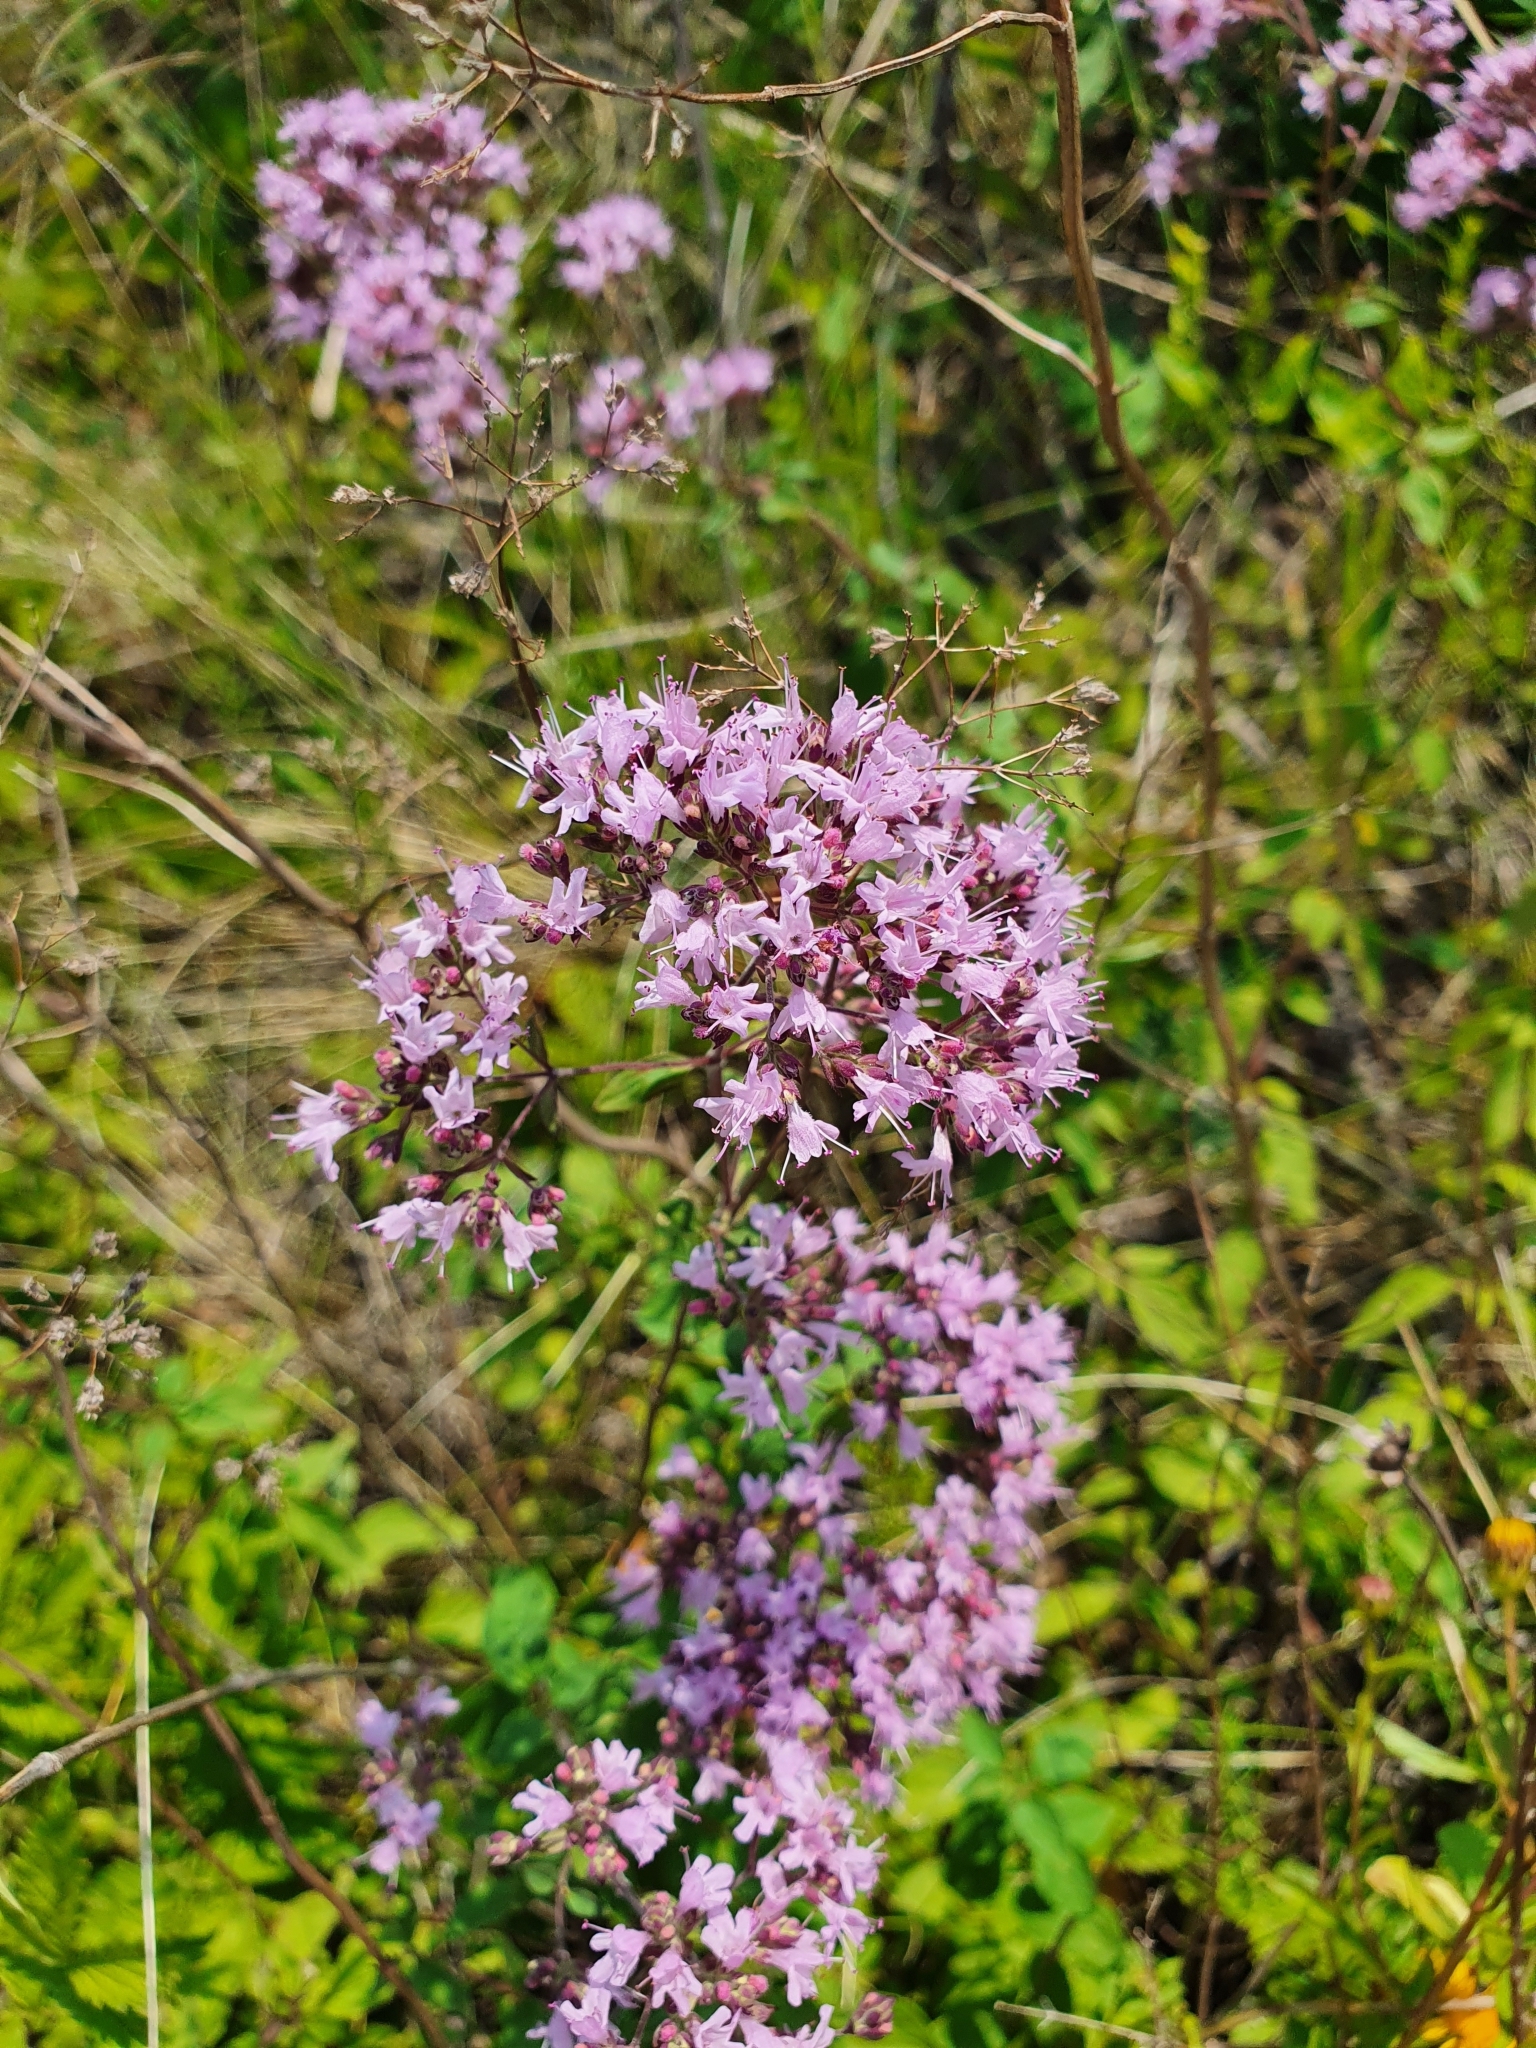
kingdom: Plantae
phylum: Tracheophyta
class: Magnoliopsida
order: Lamiales
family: Lamiaceae
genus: Origanum
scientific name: Origanum vulgare
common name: Wild marjoram
